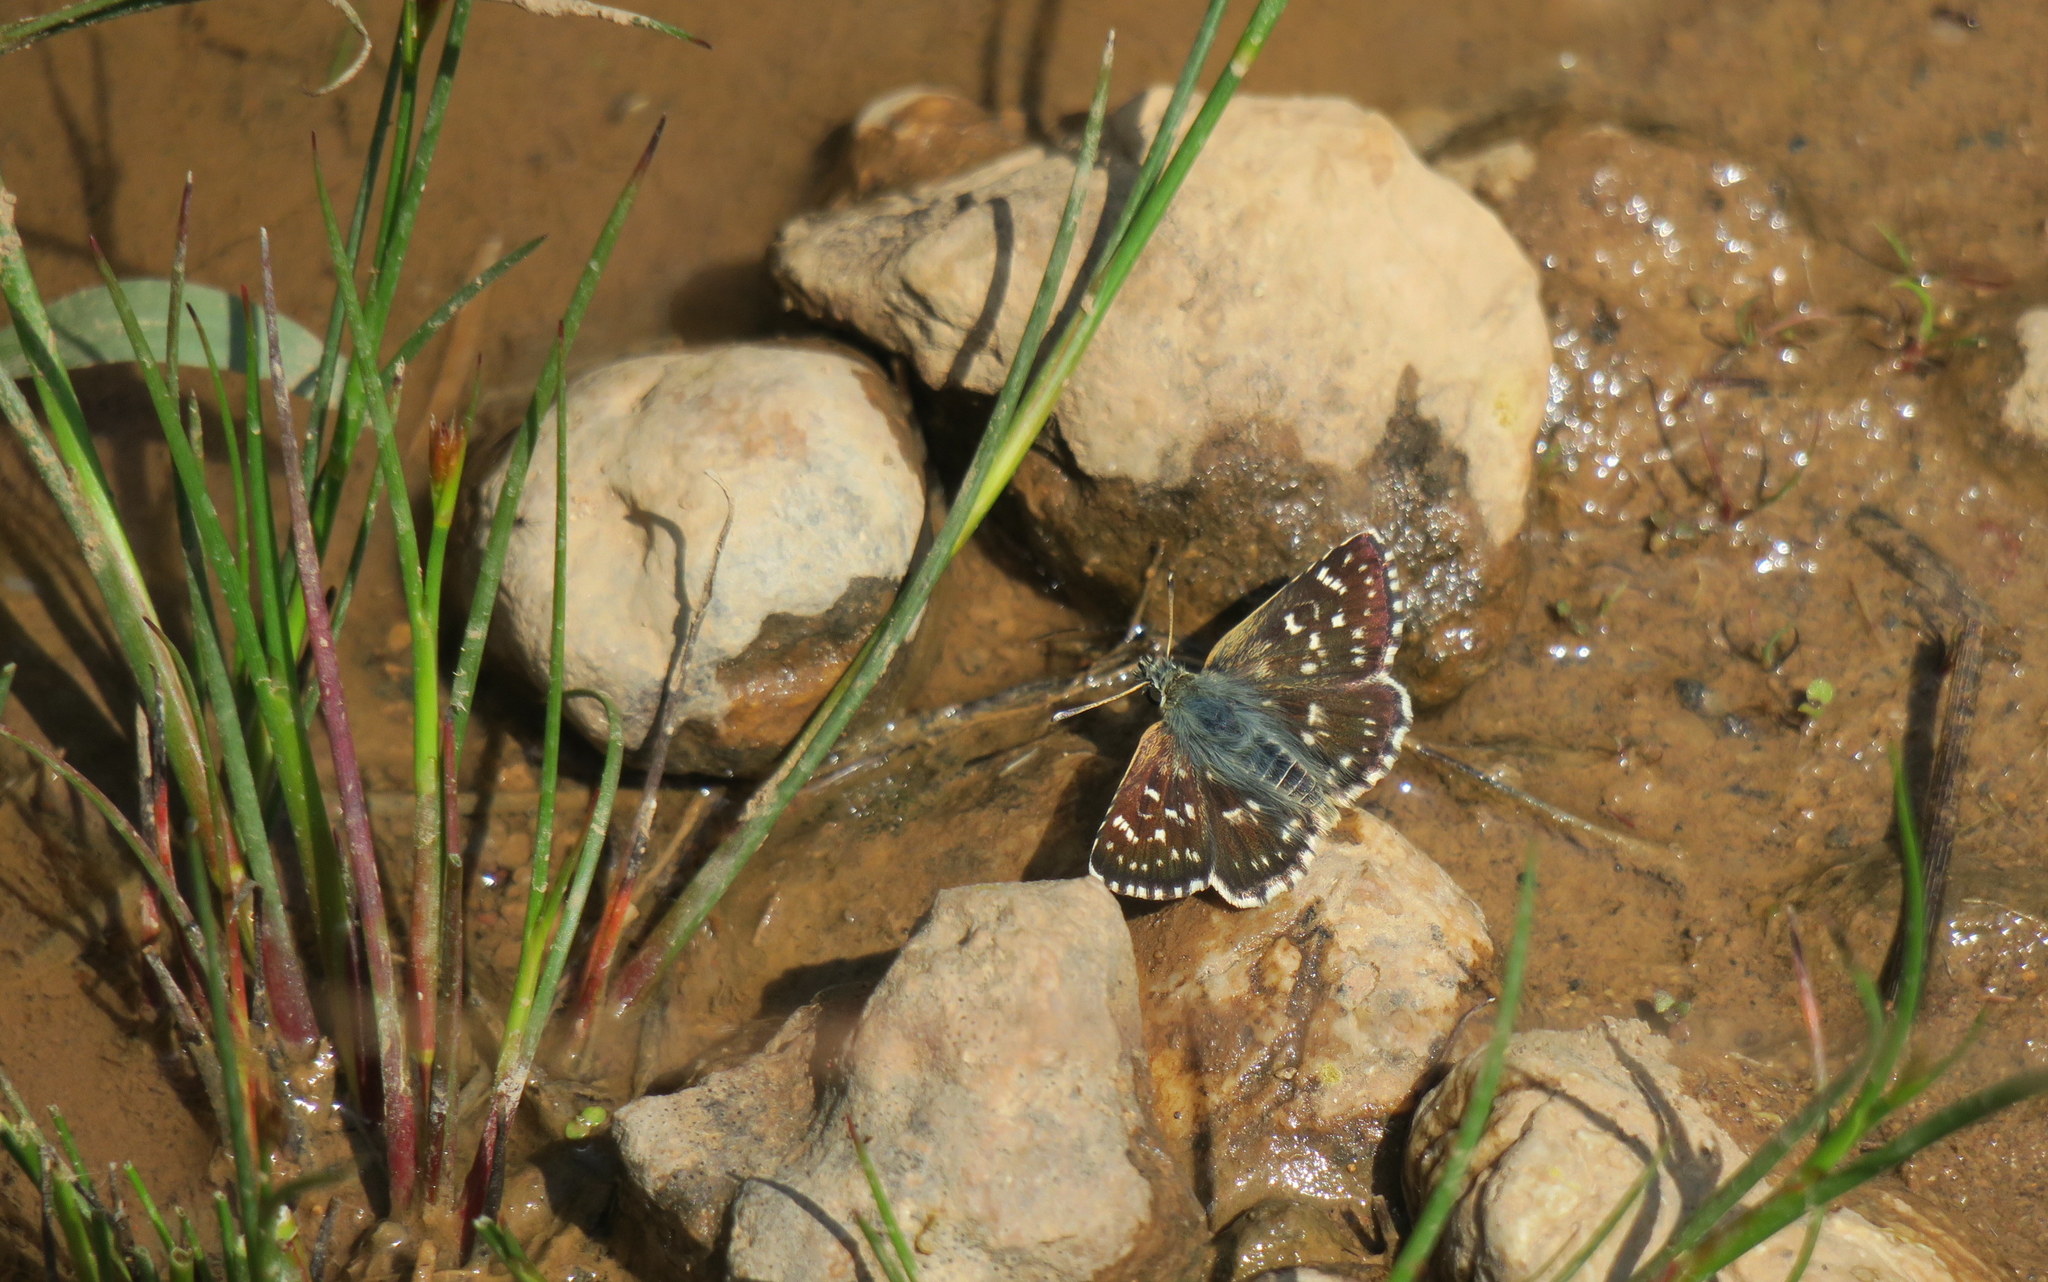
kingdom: Animalia
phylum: Arthropoda
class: Insecta
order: Lepidoptera
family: Hesperiidae
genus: Spialia
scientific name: Spialia sertorius
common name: Red underwing skipper
